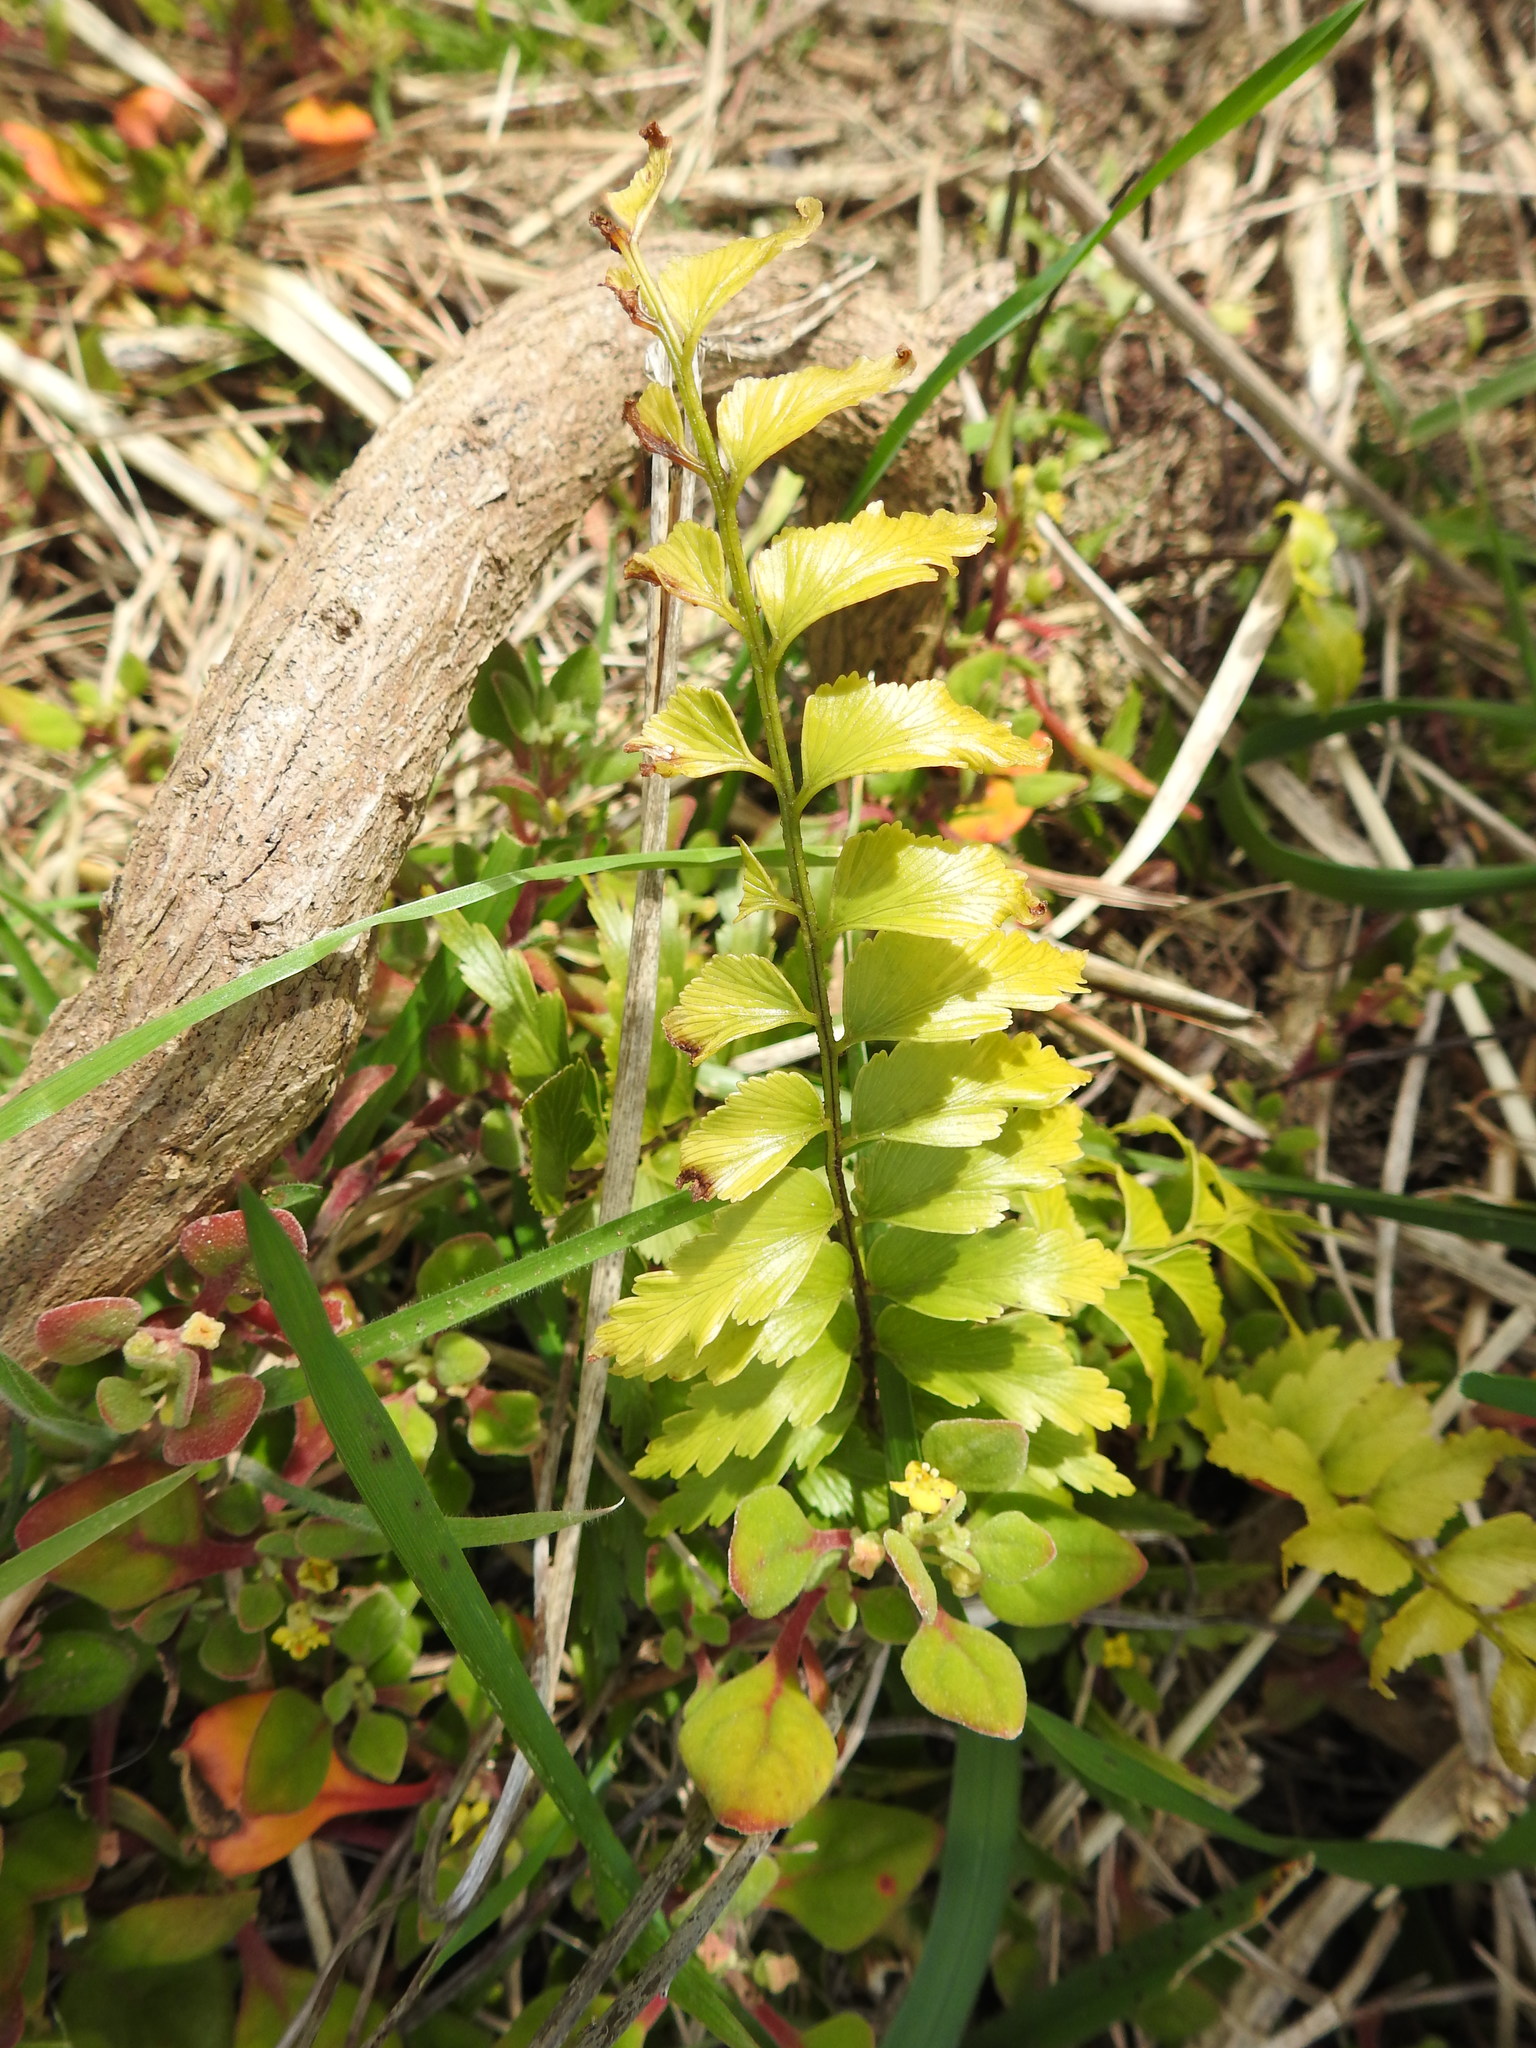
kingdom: Plantae
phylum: Tracheophyta
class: Polypodiopsida
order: Polypodiales
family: Aspleniaceae
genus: Asplenium
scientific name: Asplenium polyodon
